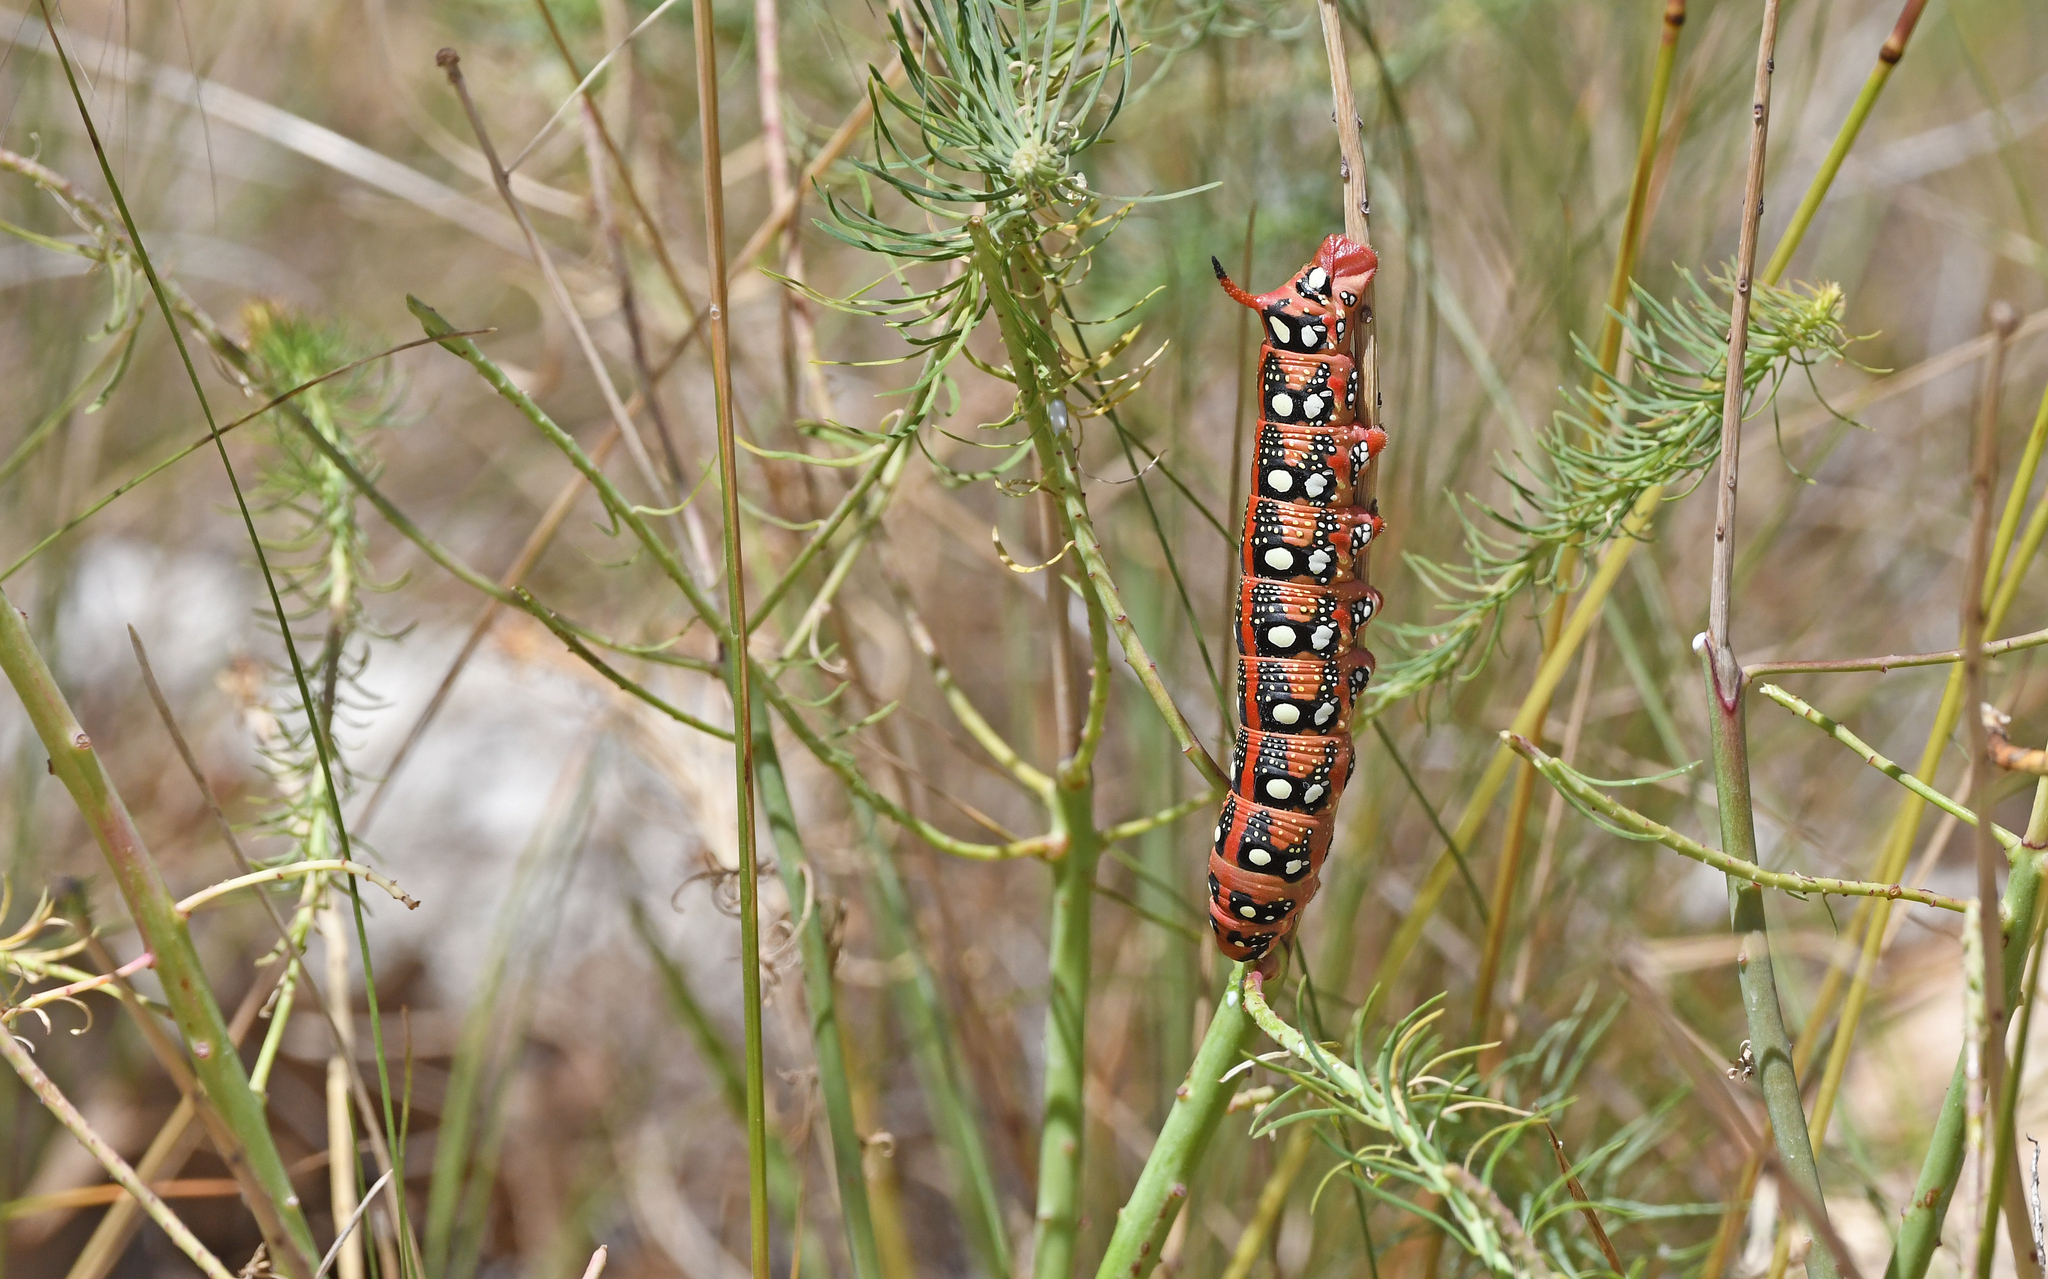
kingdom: Animalia
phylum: Arthropoda
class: Insecta
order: Lepidoptera
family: Sphingidae
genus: Hyles
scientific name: Hyles euphorbiae
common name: Spurge hawk-moth
